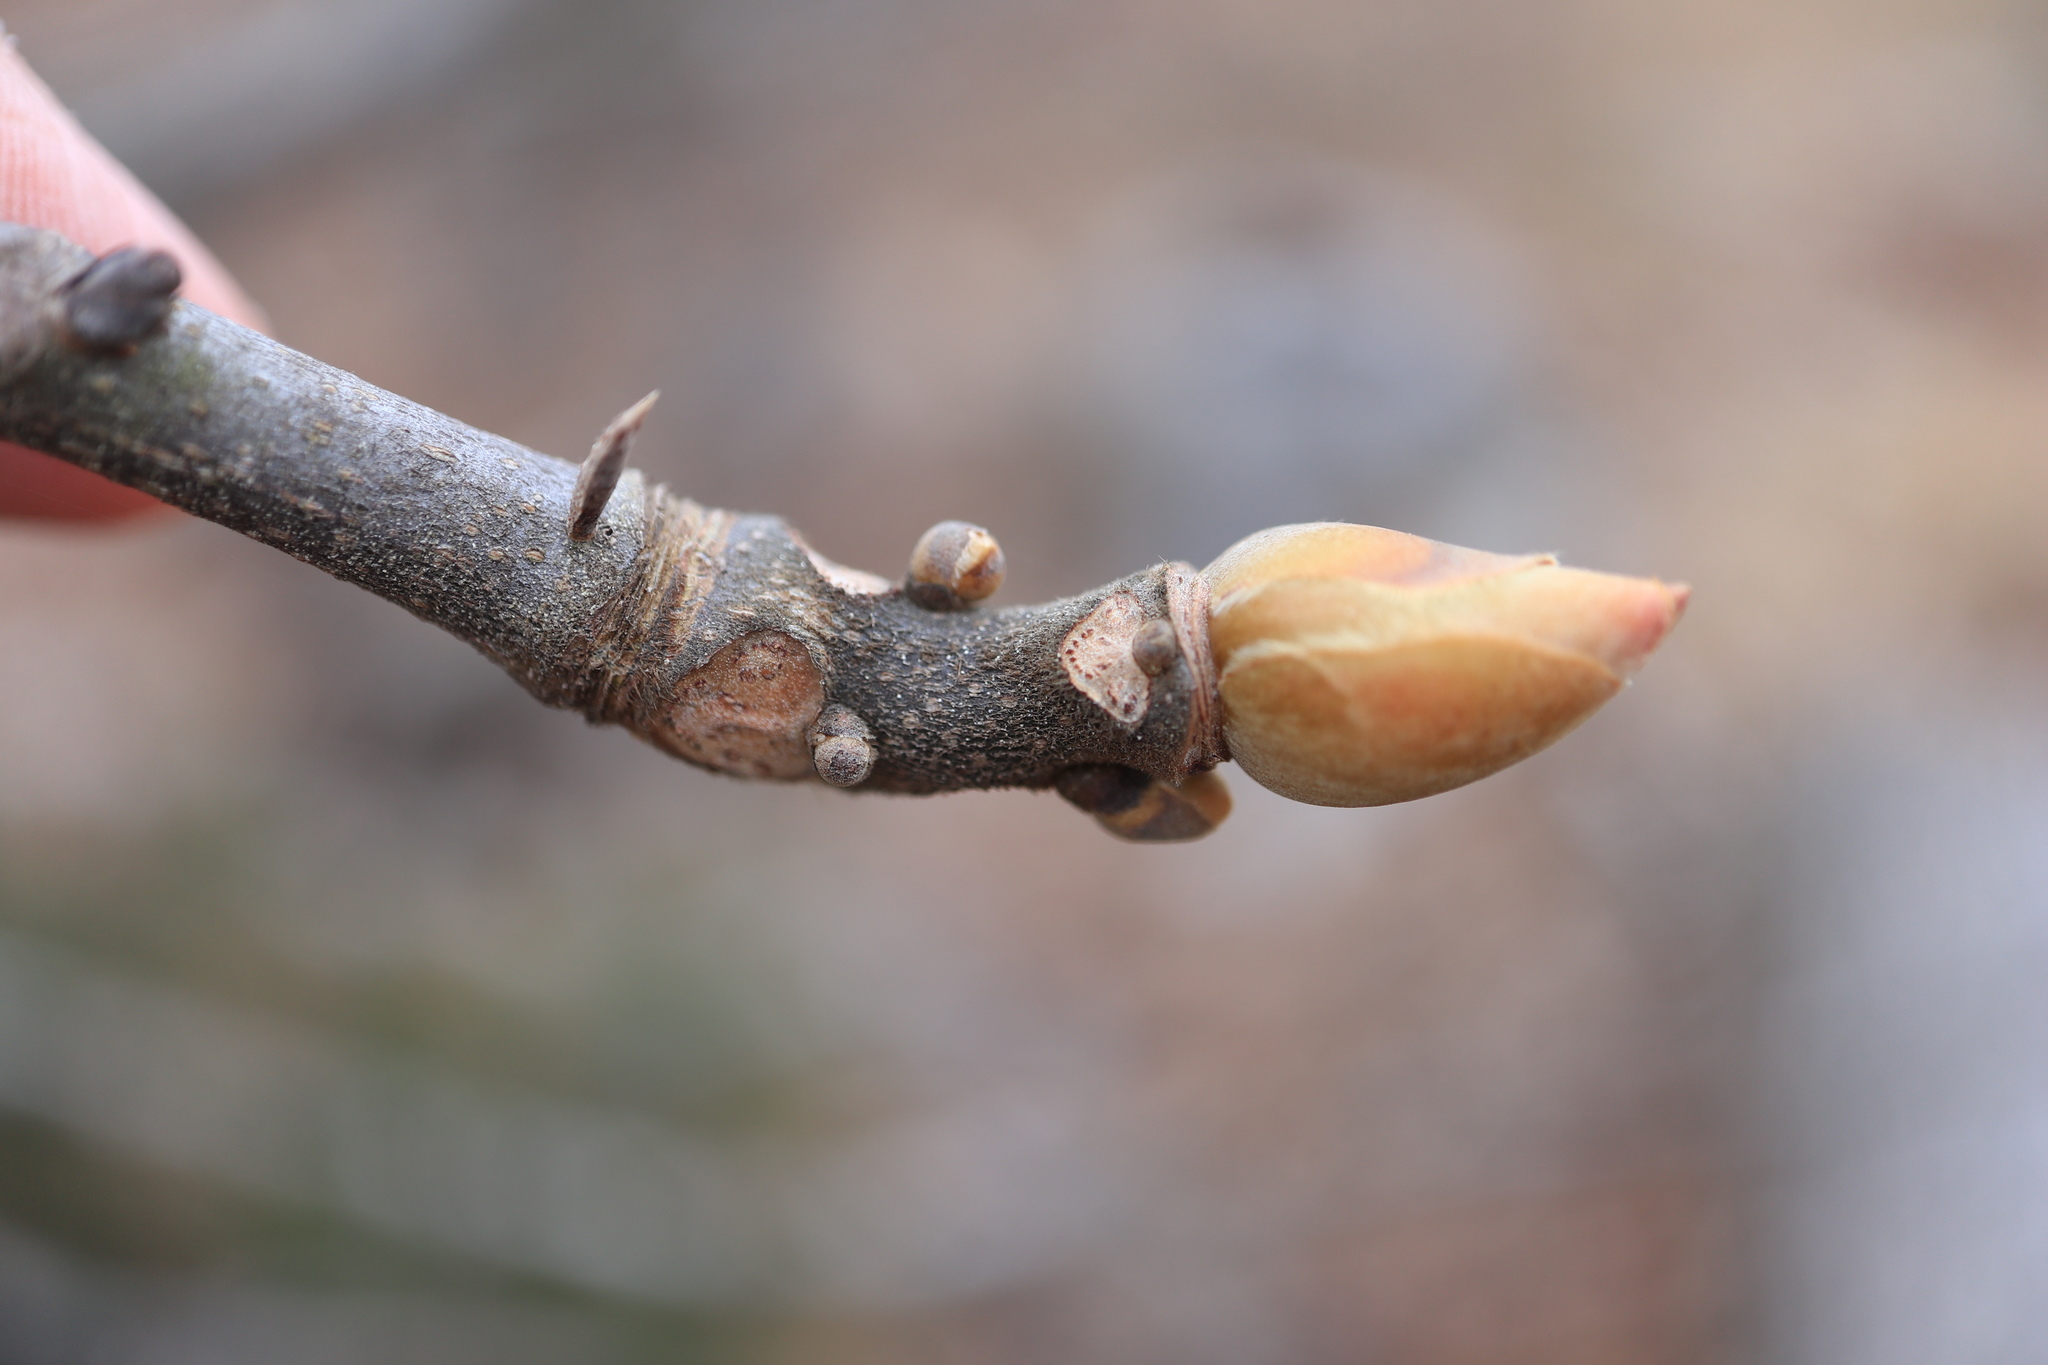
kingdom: Plantae
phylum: Tracheophyta
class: Magnoliopsida
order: Fagales
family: Juglandaceae
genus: Carya
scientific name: Carya alba
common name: Mockernut hickory
